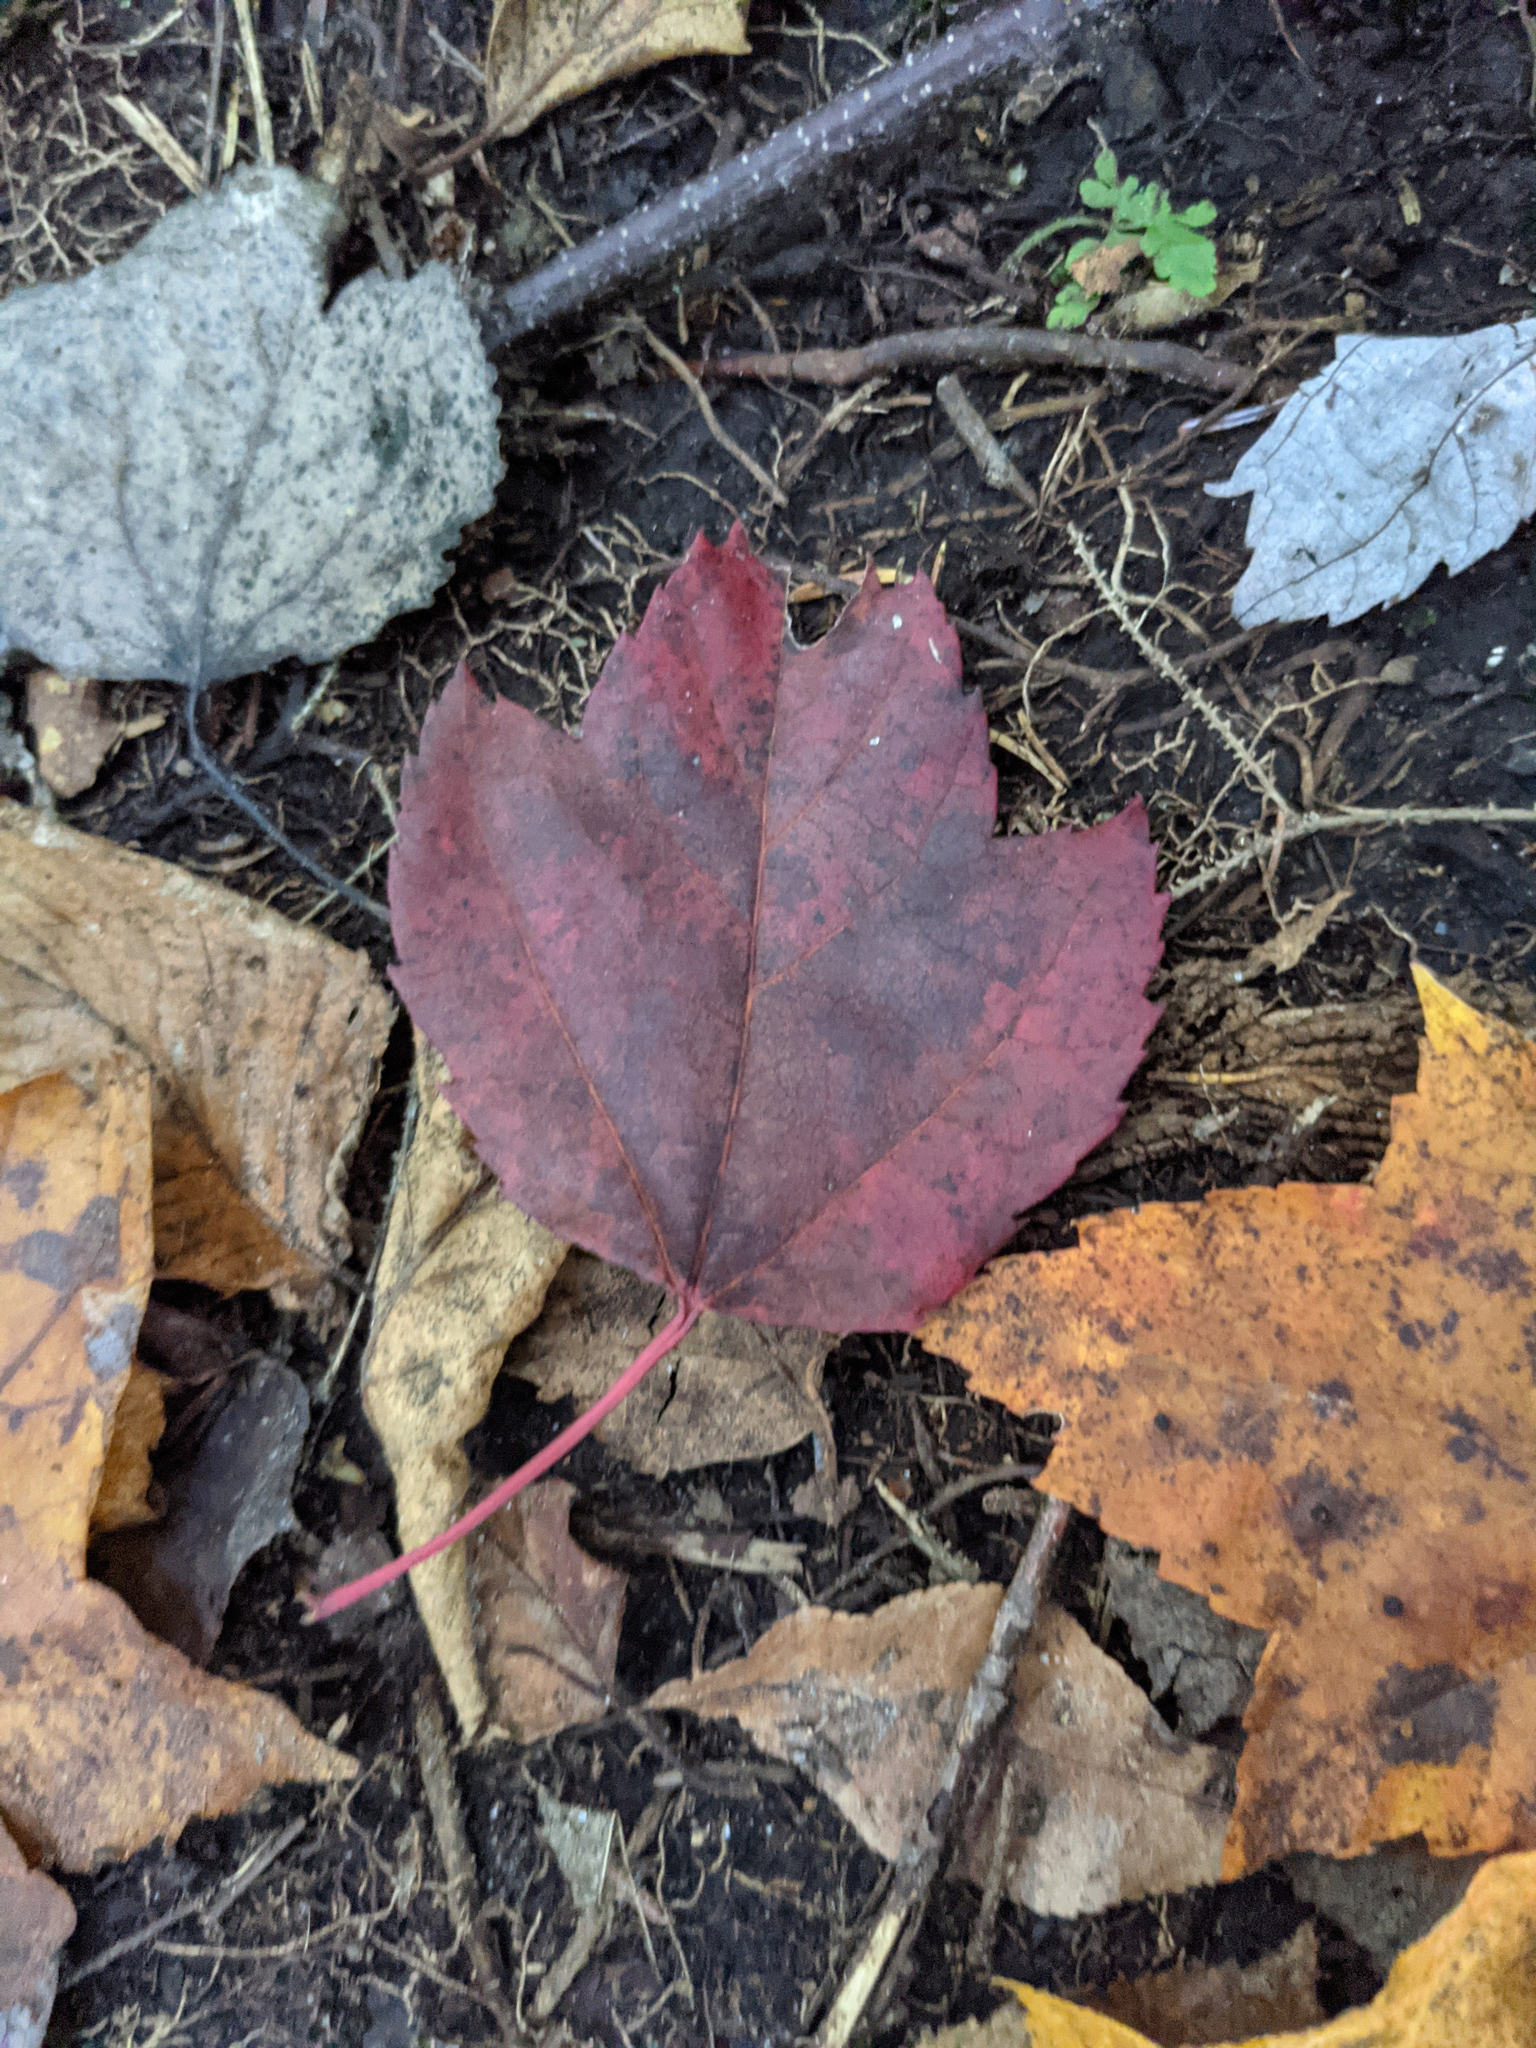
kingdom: Plantae
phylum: Tracheophyta
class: Magnoliopsida
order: Sapindales
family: Sapindaceae
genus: Acer
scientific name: Acer rubrum
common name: Red maple
